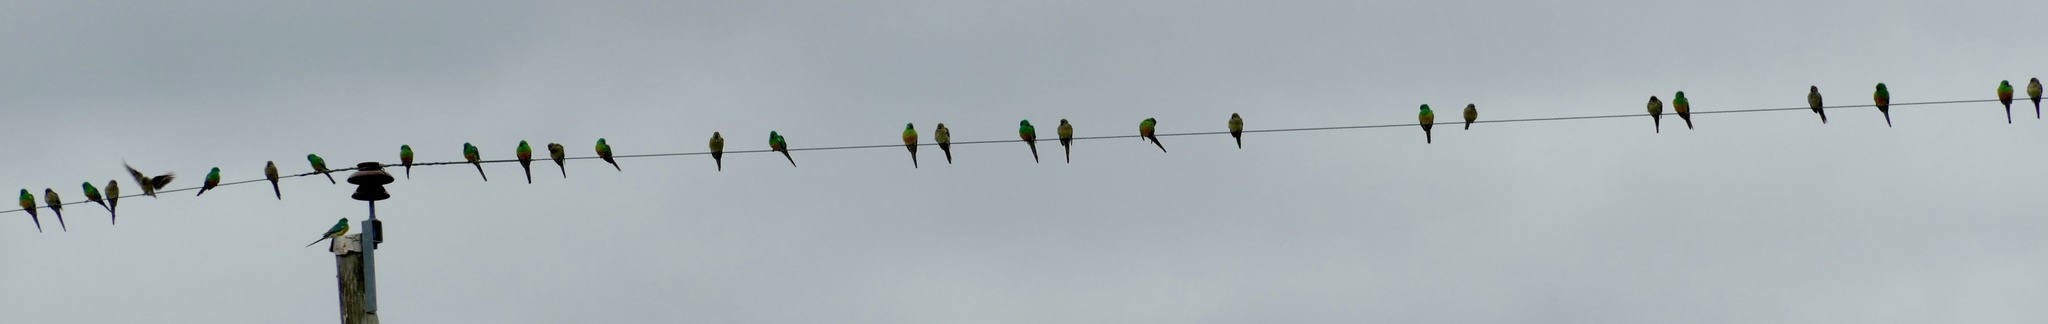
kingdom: Animalia
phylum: Chordata
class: Aves
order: Psittaciformes
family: Psittacidae
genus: Psephotus
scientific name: Psephotus haematonotus
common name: Red-rumped parrot
